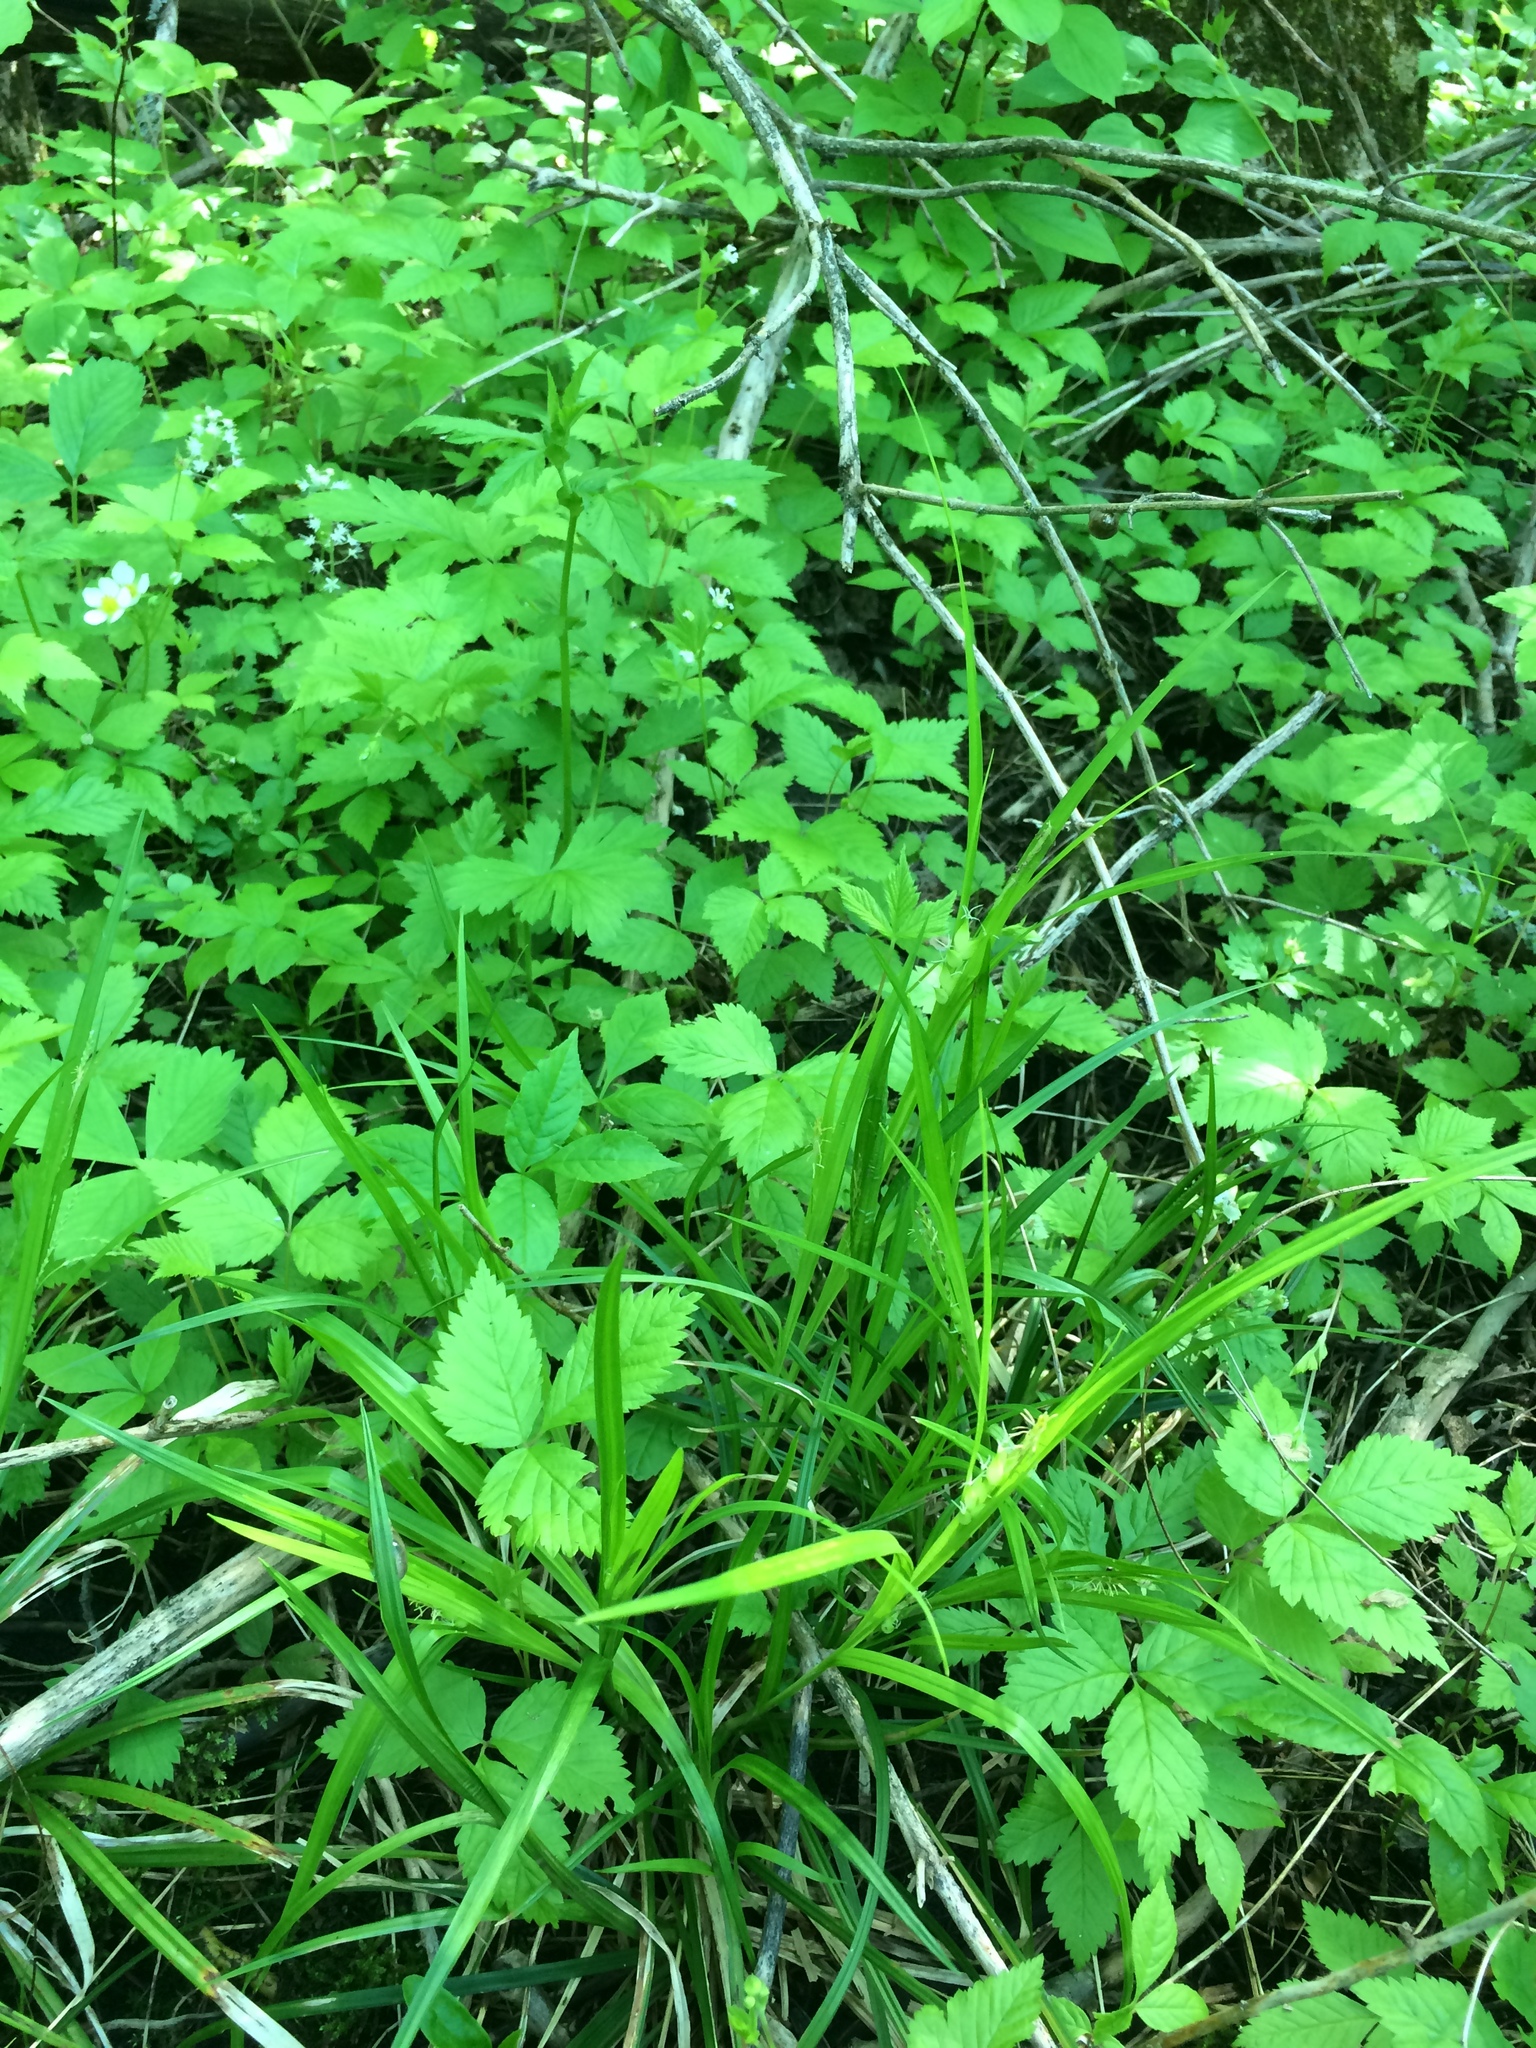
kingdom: Plantae
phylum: Tracheophyta
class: Liliopsida
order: Poales
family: Cyperaceae
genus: Carex
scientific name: Carex intumescens
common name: Greater bladder sedge
